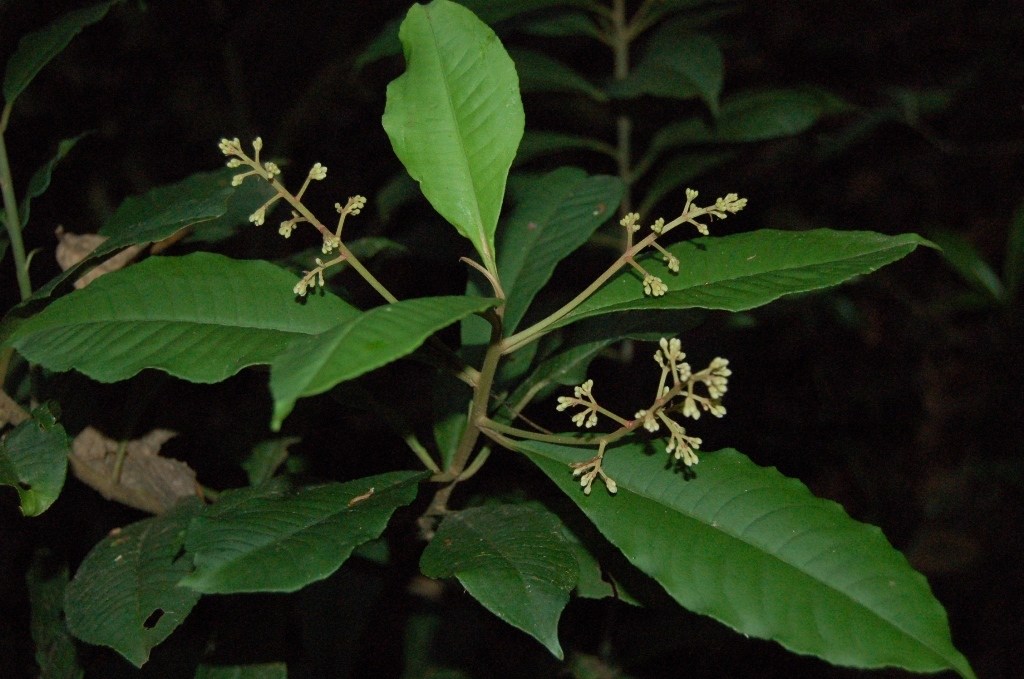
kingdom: Plantae
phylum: Tracheophyta
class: Magnoliopsida
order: Ericales
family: Primulaceae
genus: Parathesis
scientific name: Parathesis leptopa
